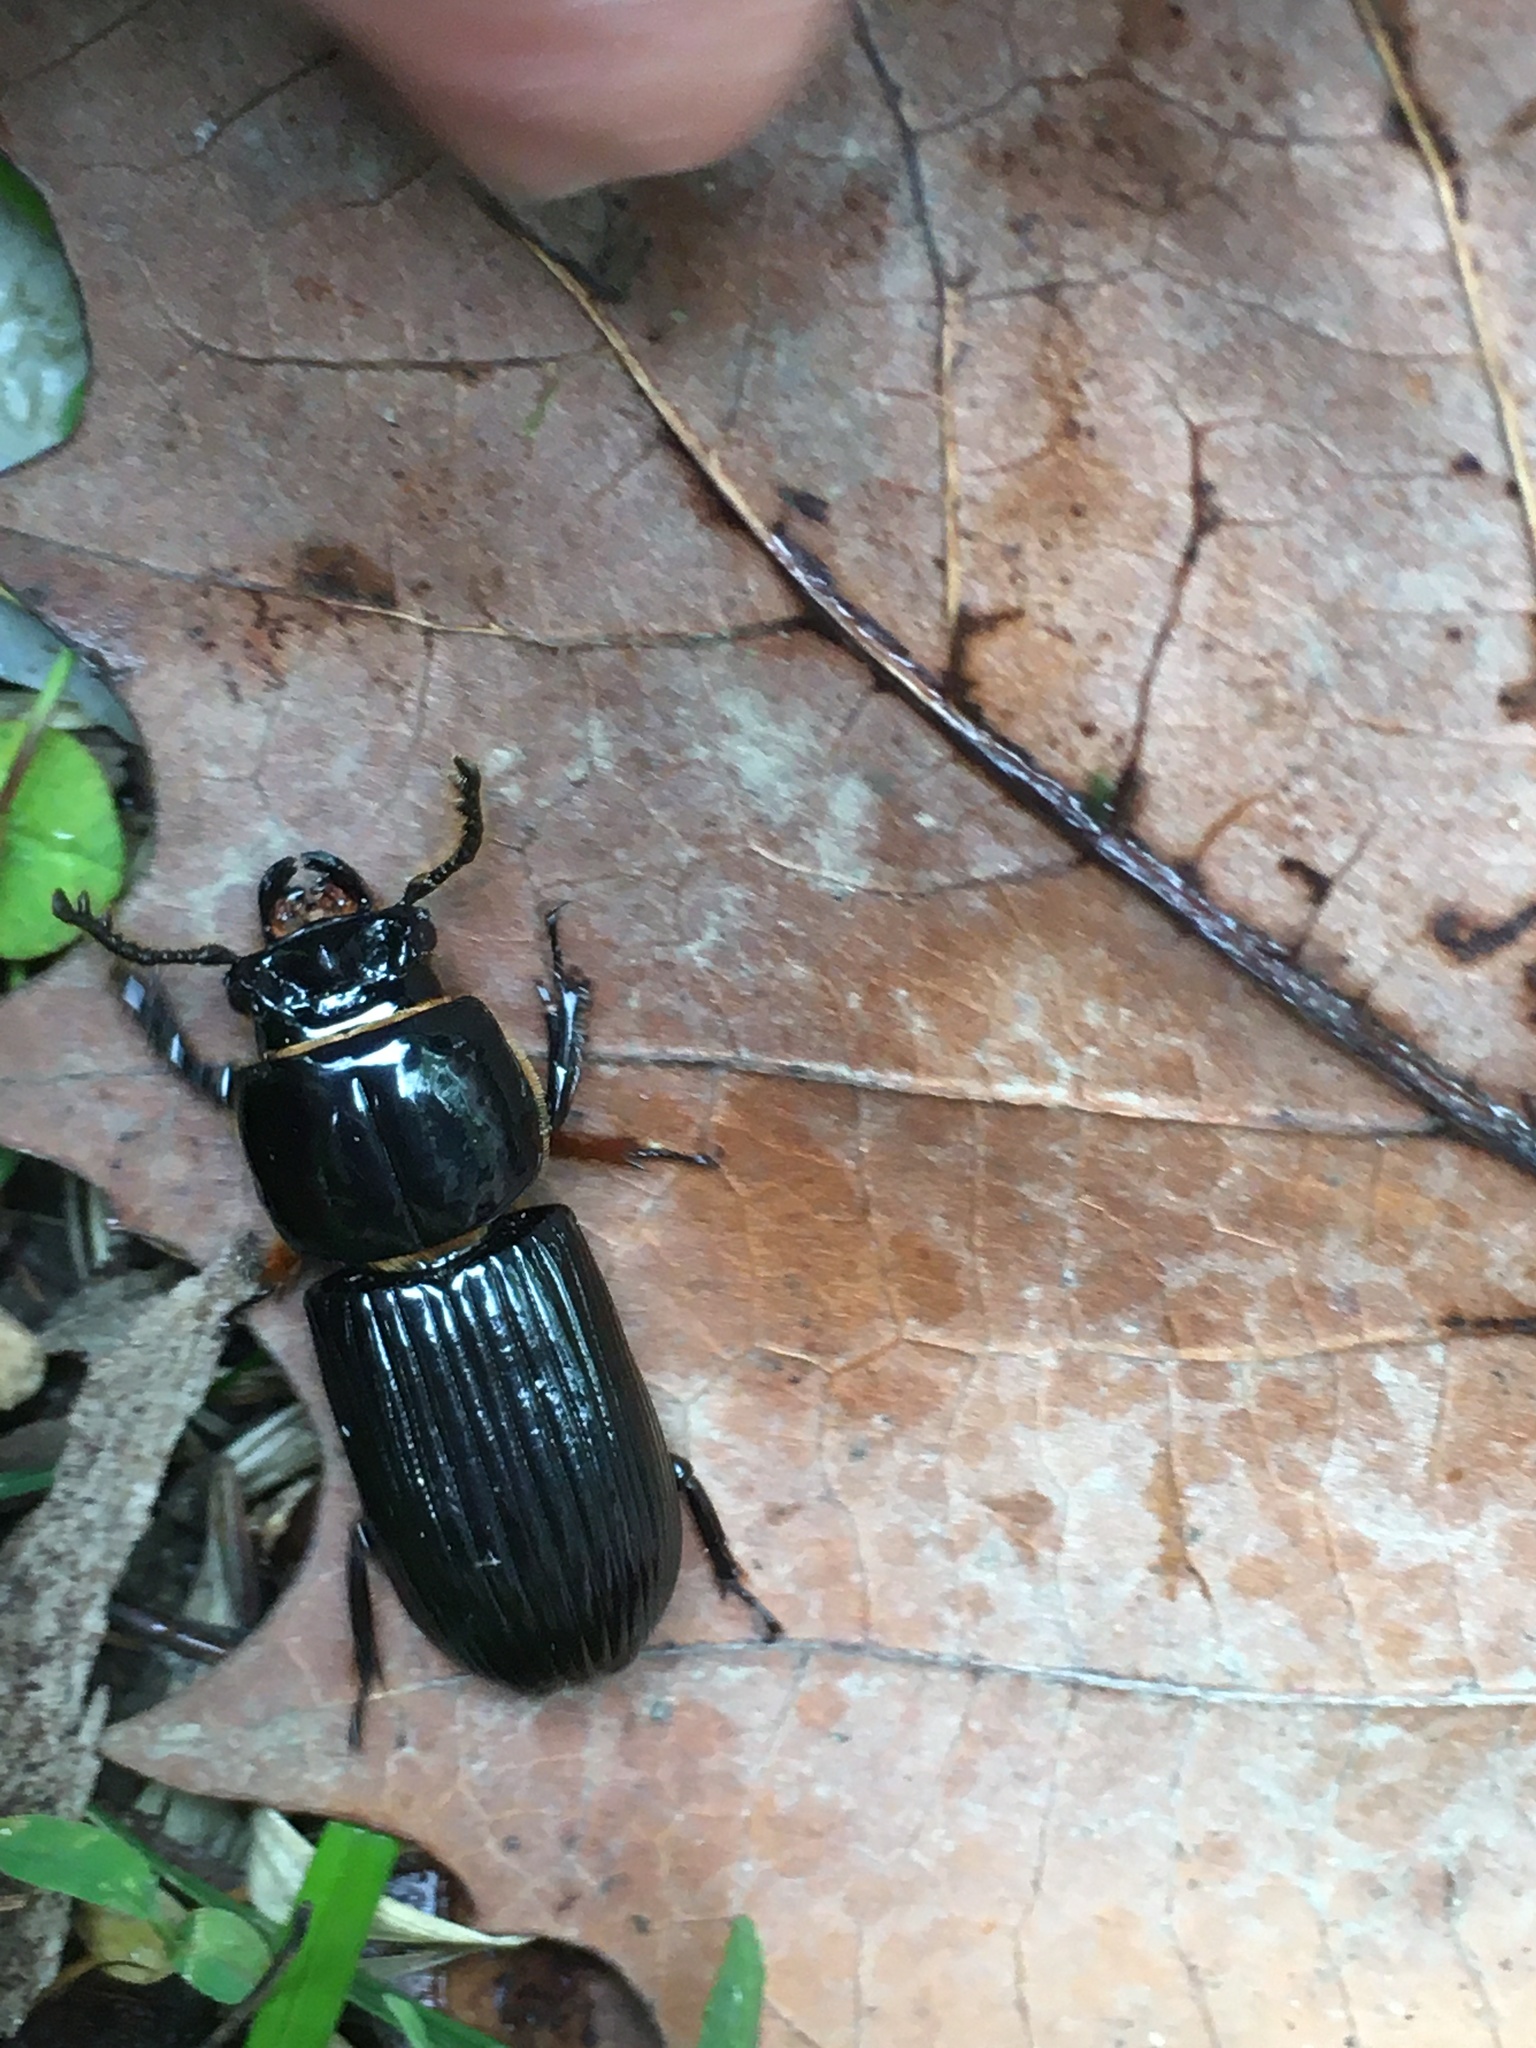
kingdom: Animalia
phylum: Arthropoda
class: Insecta
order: Coleoptera
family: Passalidae
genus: Odontotaenius
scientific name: Odontotaenius disjunctus
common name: Patent leather beetle
